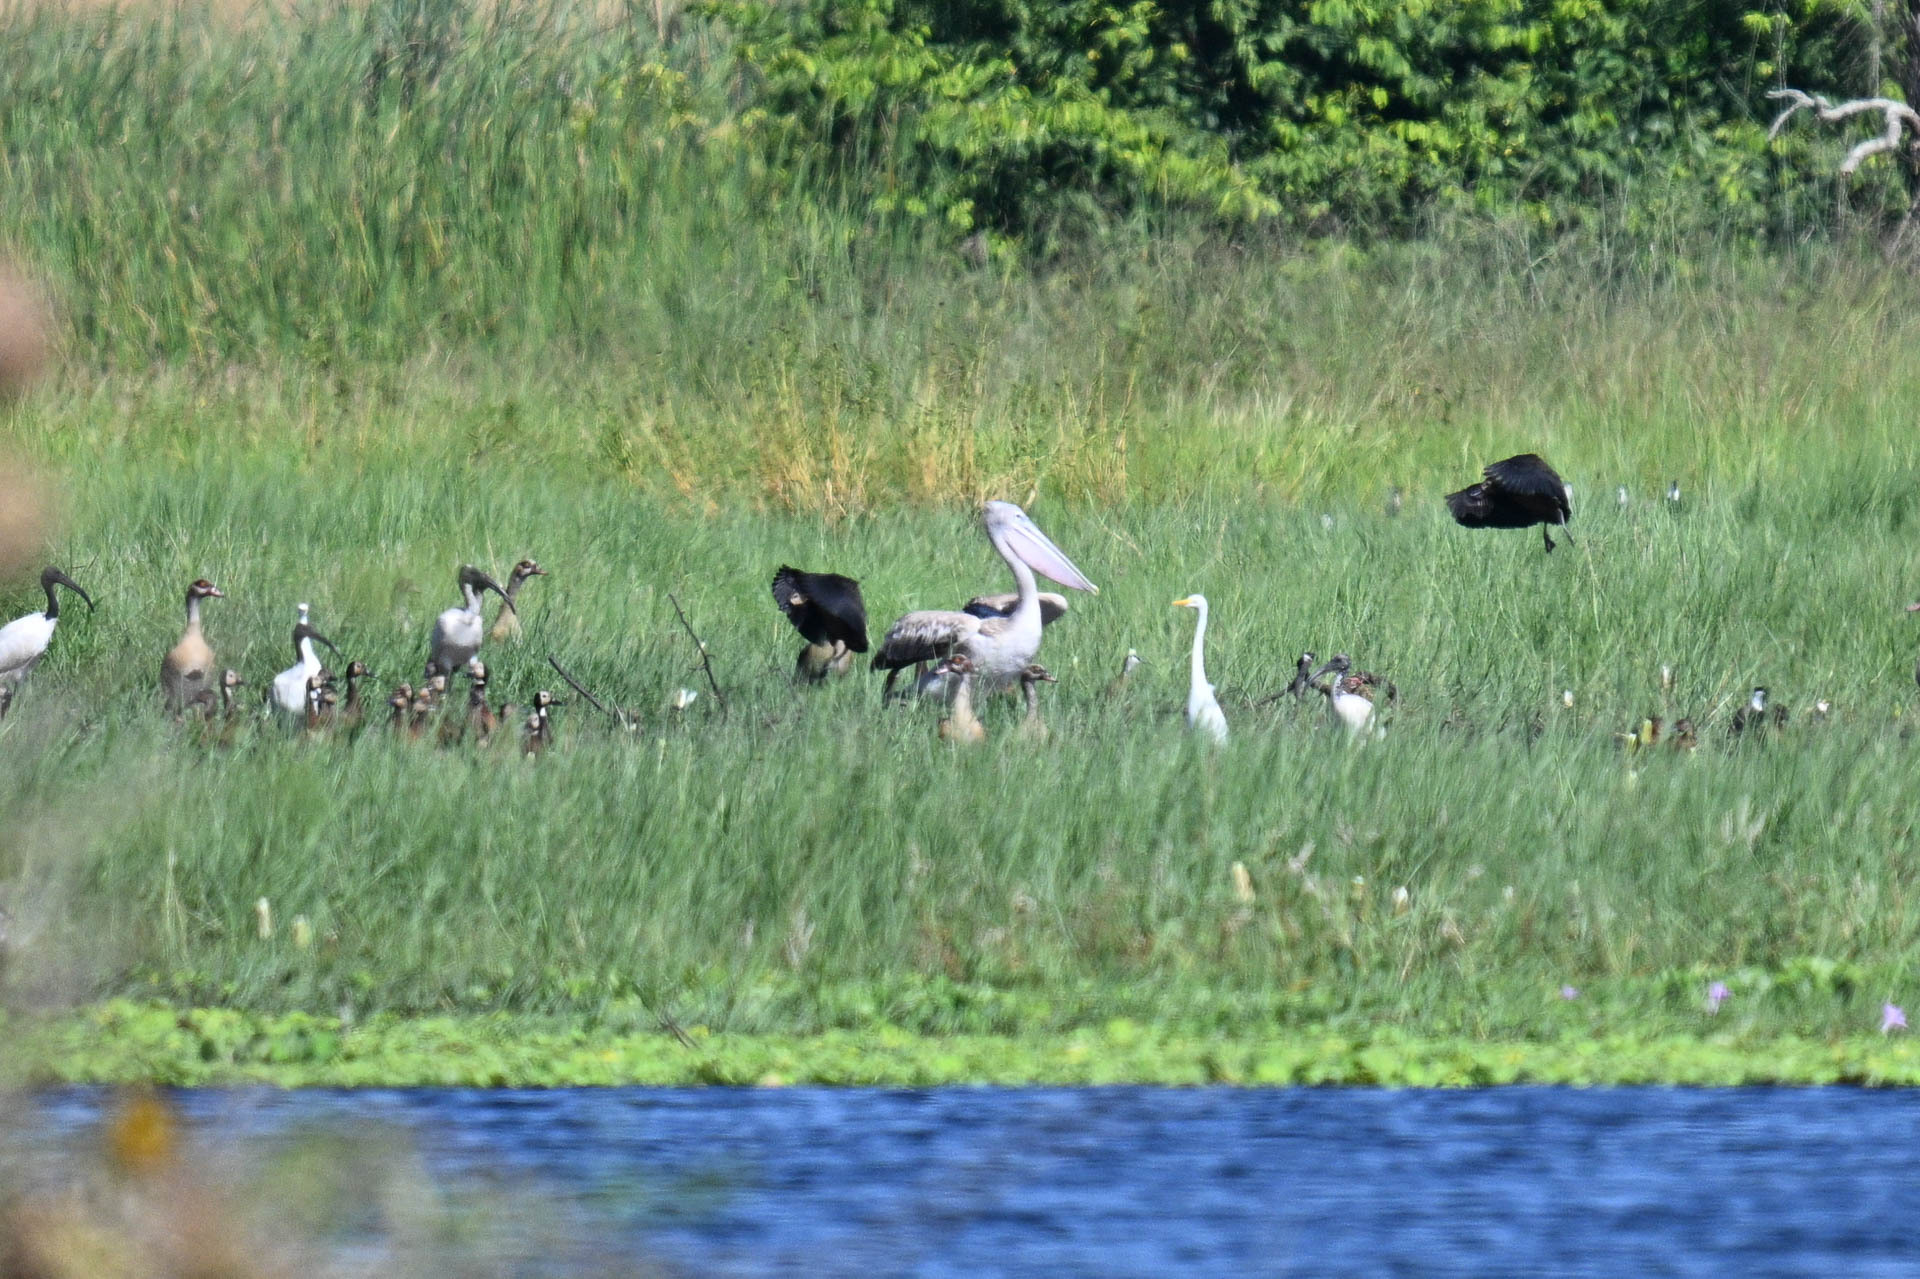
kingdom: Animalia
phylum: Chordata
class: Aves
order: Pelecaniformes
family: Pelecanidae
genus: Pelecanus
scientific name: Pelecanus rufescens
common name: Pink-backed pelican
